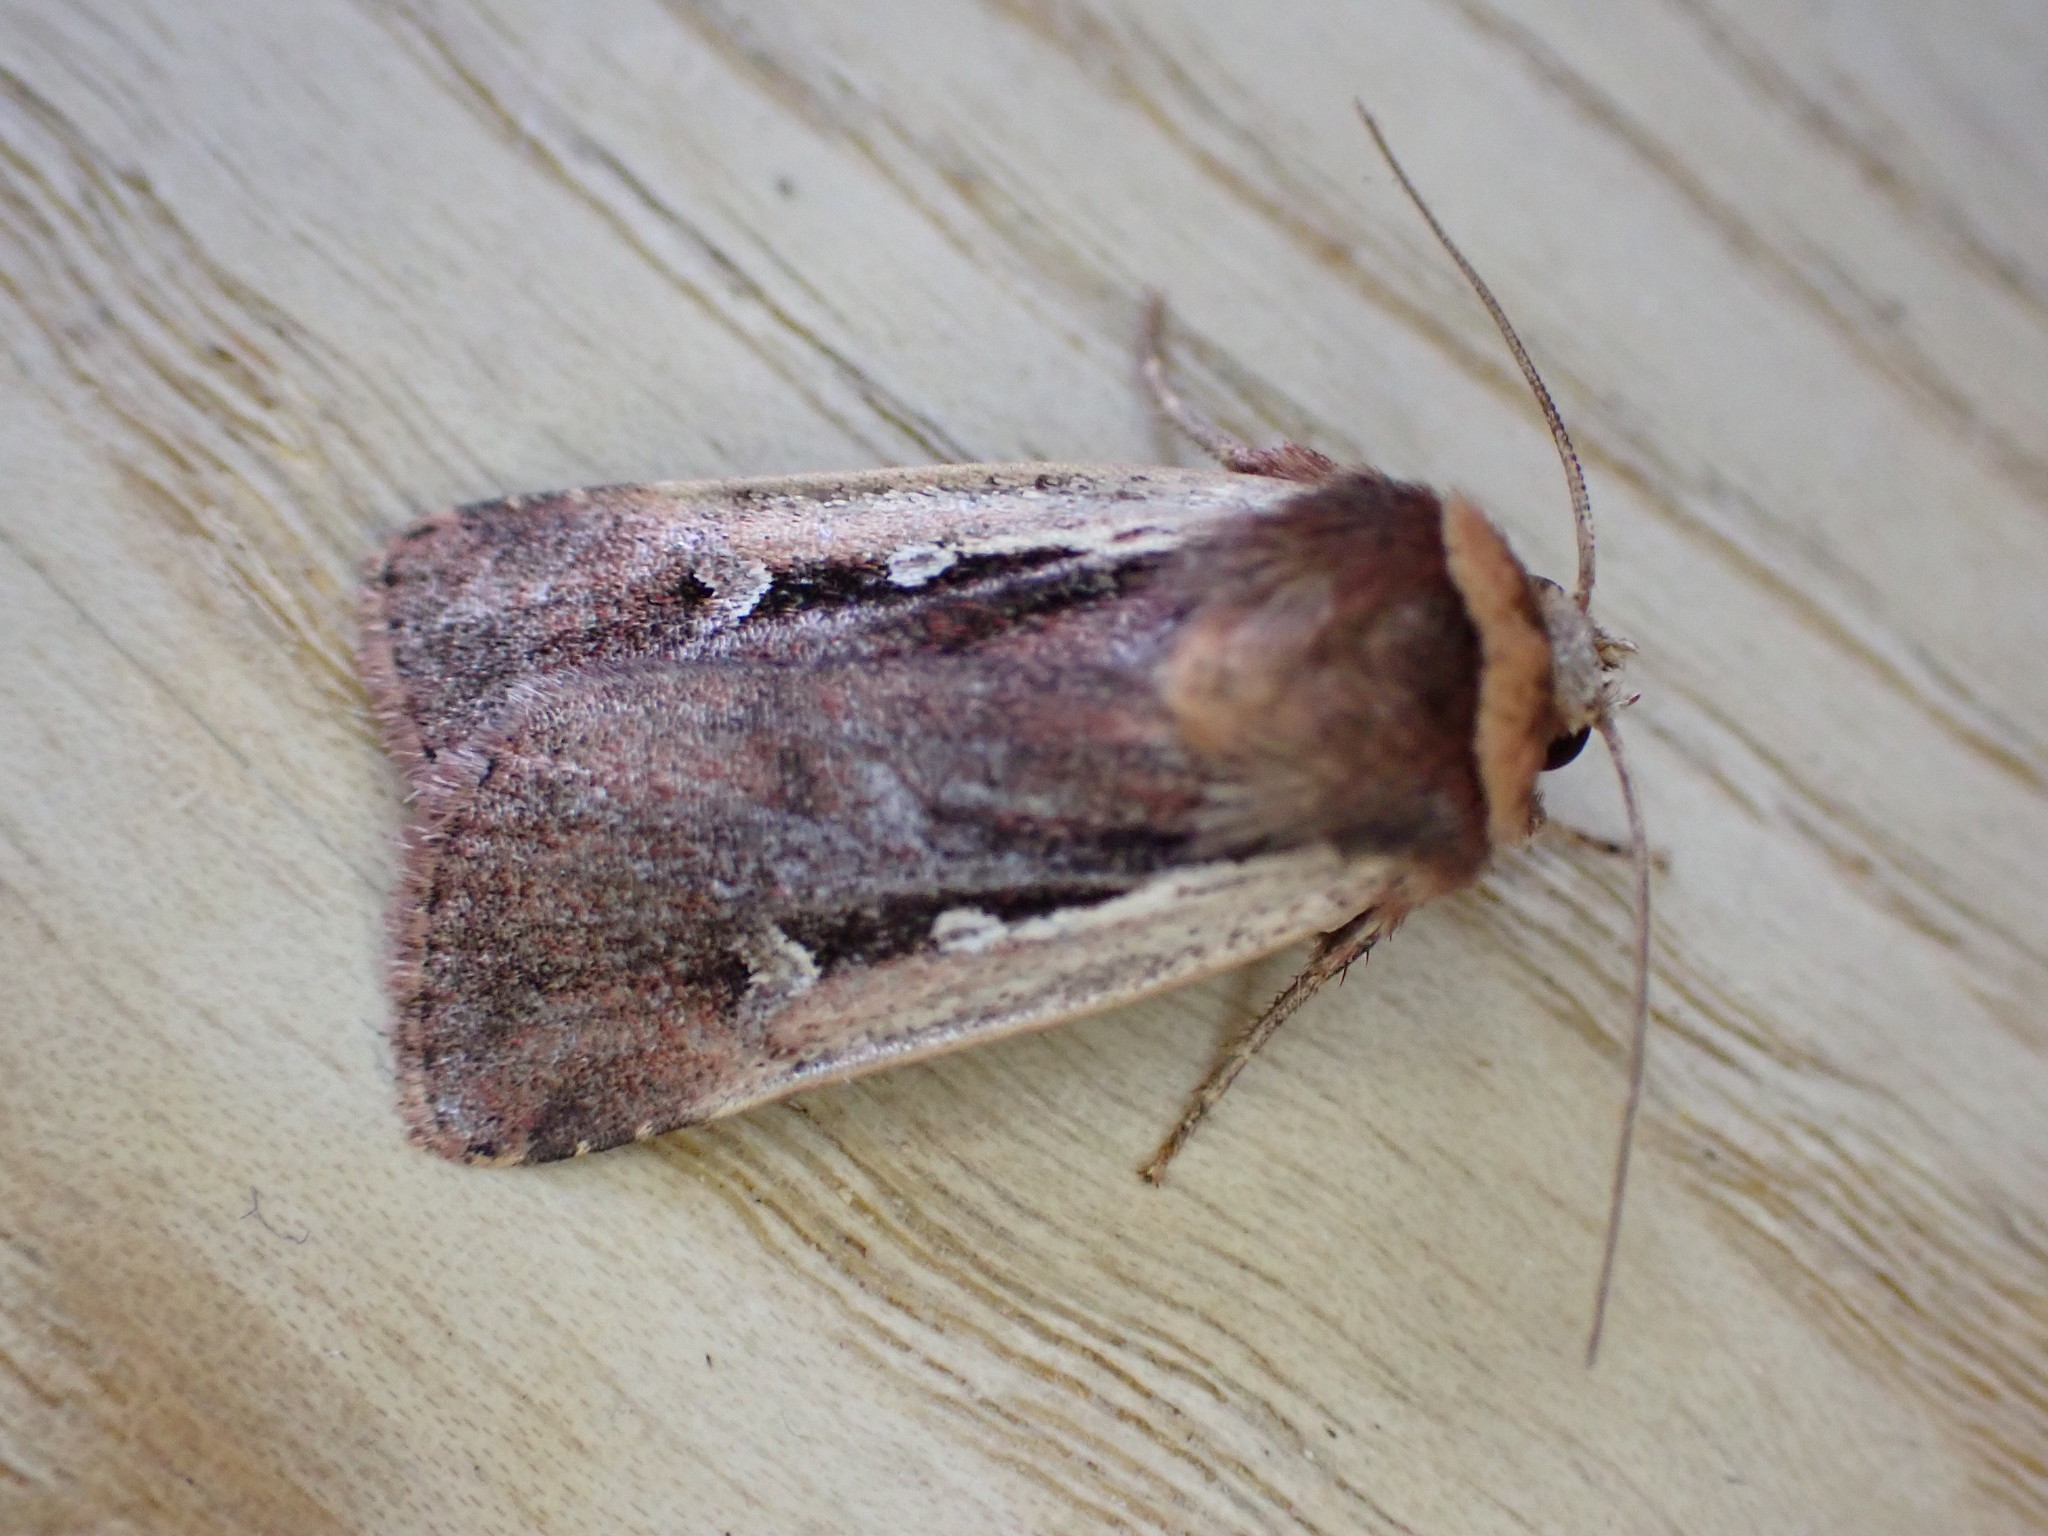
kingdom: Animalia
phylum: Arthropoda
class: Insecta
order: Lepidoptera
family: Noctuidae
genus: Ochropleura
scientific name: Ochropleura plecta
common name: Flame shoulder
